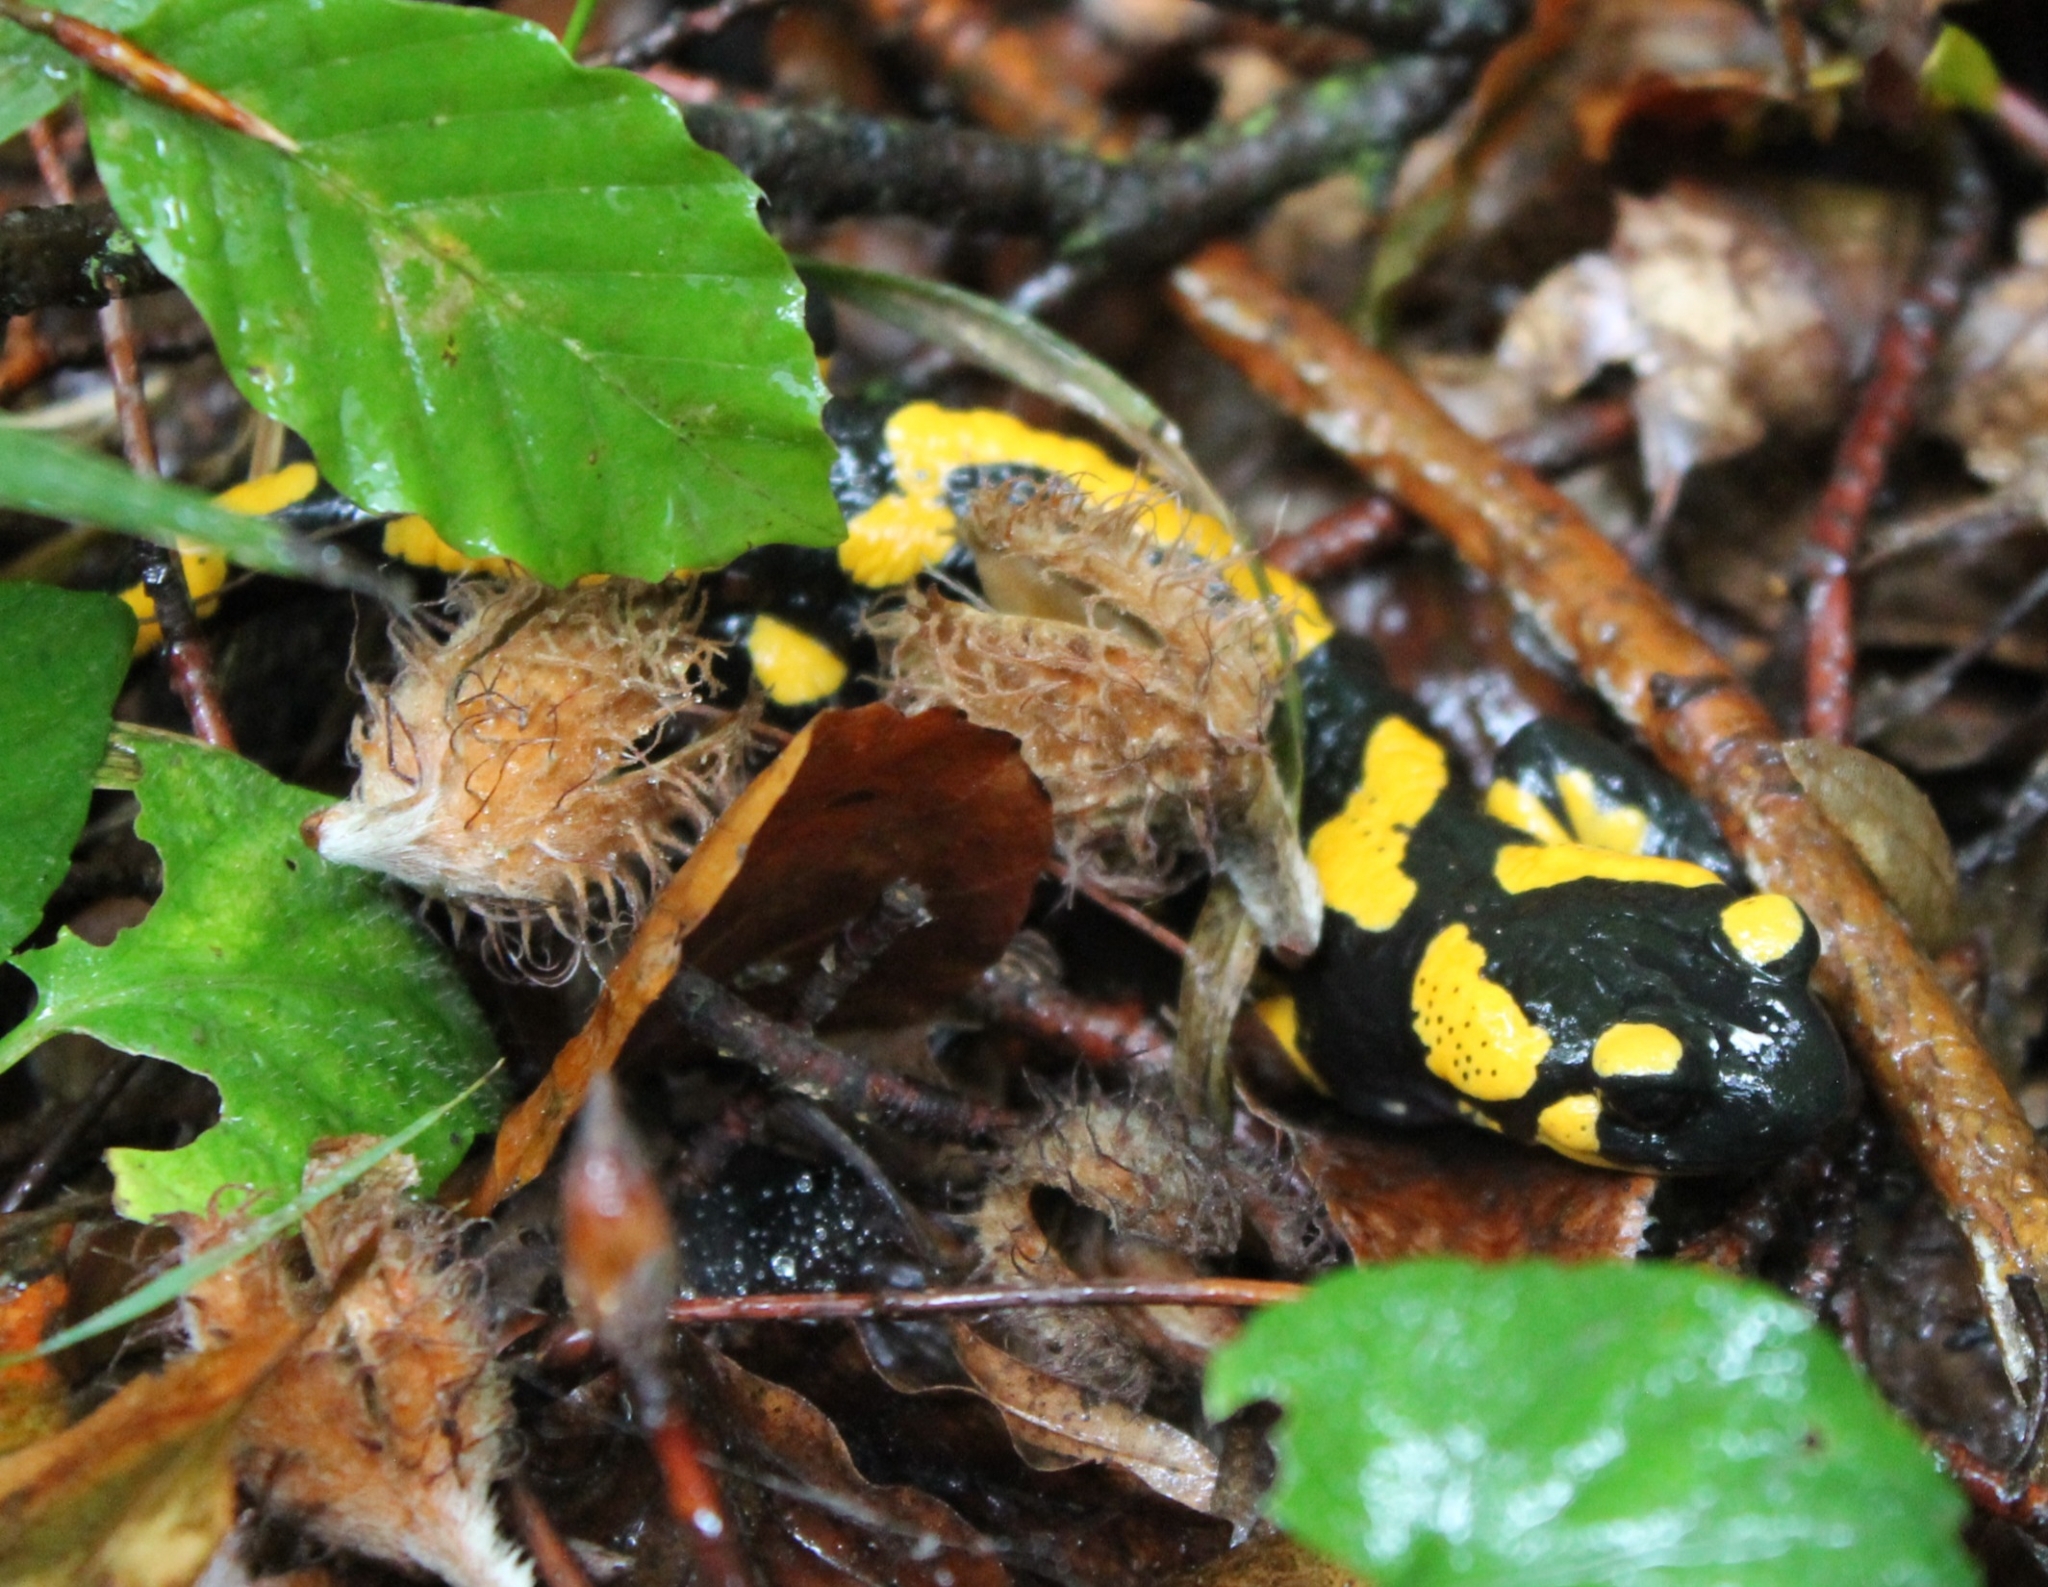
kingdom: Animalia
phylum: Chordata
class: Amphibia
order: Caudata
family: Salamandridae
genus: Salamandra
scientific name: Salamandra salamandra
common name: Fire salamander
